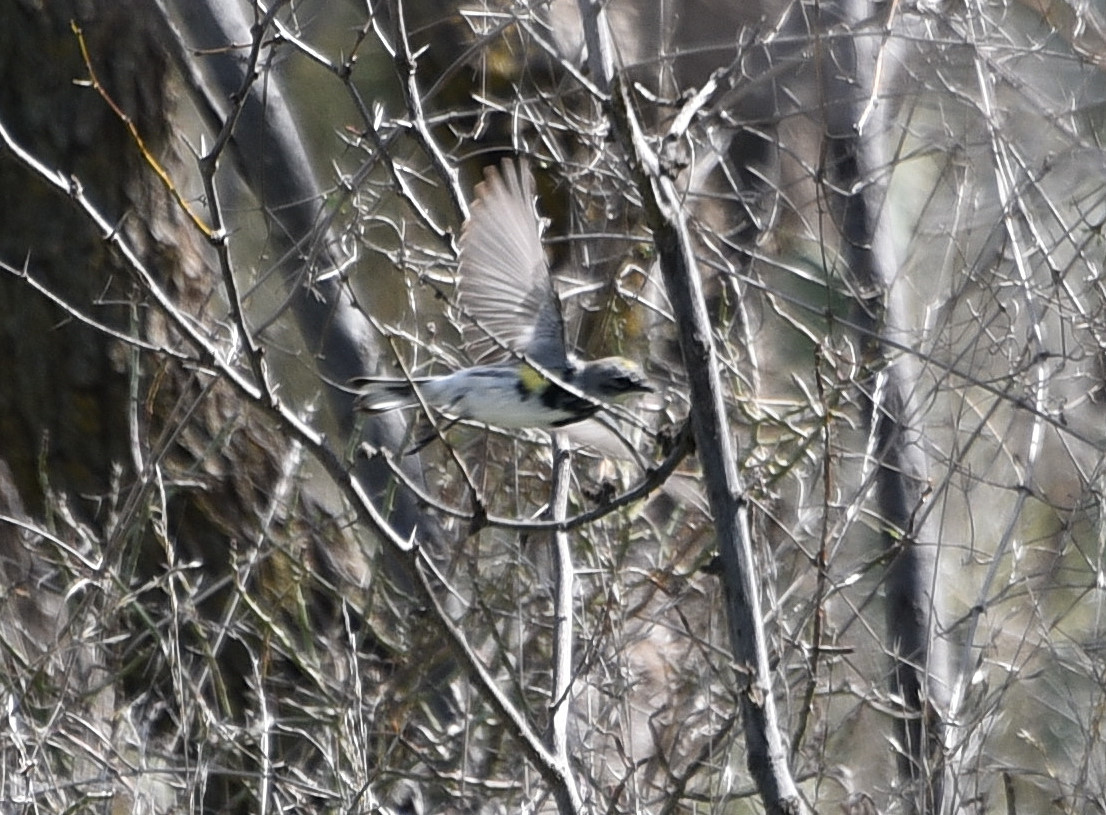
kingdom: Animalia
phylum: Chordata
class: Aves
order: Passeriformes
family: Parulidae
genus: Setophaga
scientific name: Setophaga coronata
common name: Myrtle warbler
